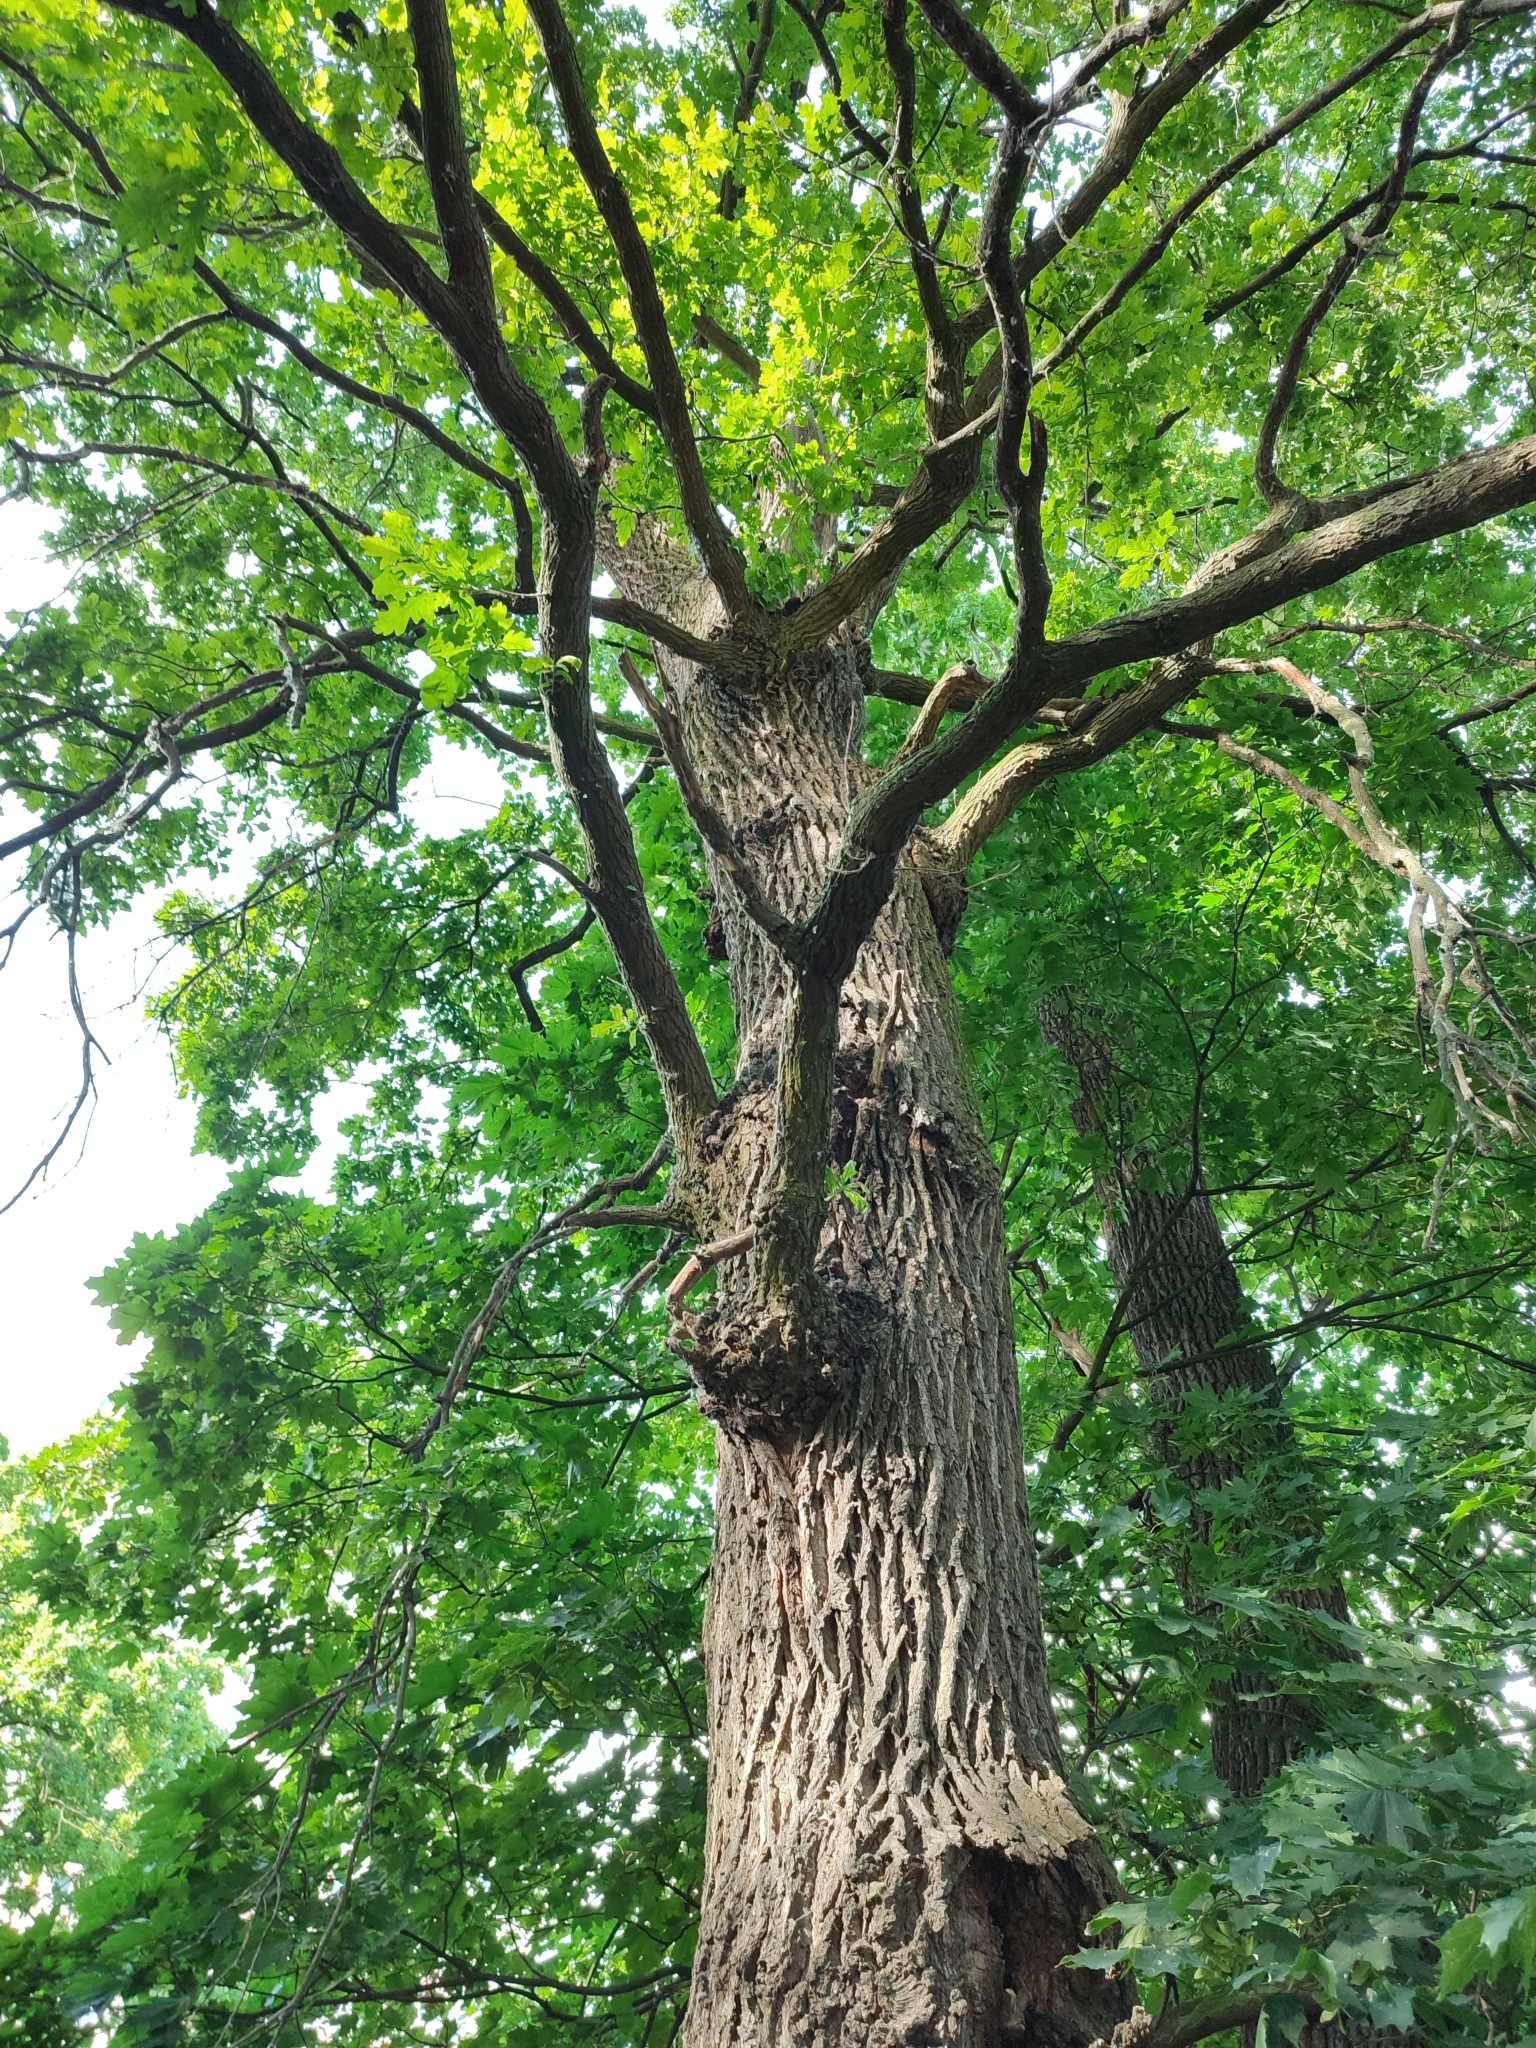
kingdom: Plantae
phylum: Tracheophyta
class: Magnoliopsida
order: Fagales
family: Fagaceae
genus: Quercus
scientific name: Quercus robur
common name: Pedunculate oak
